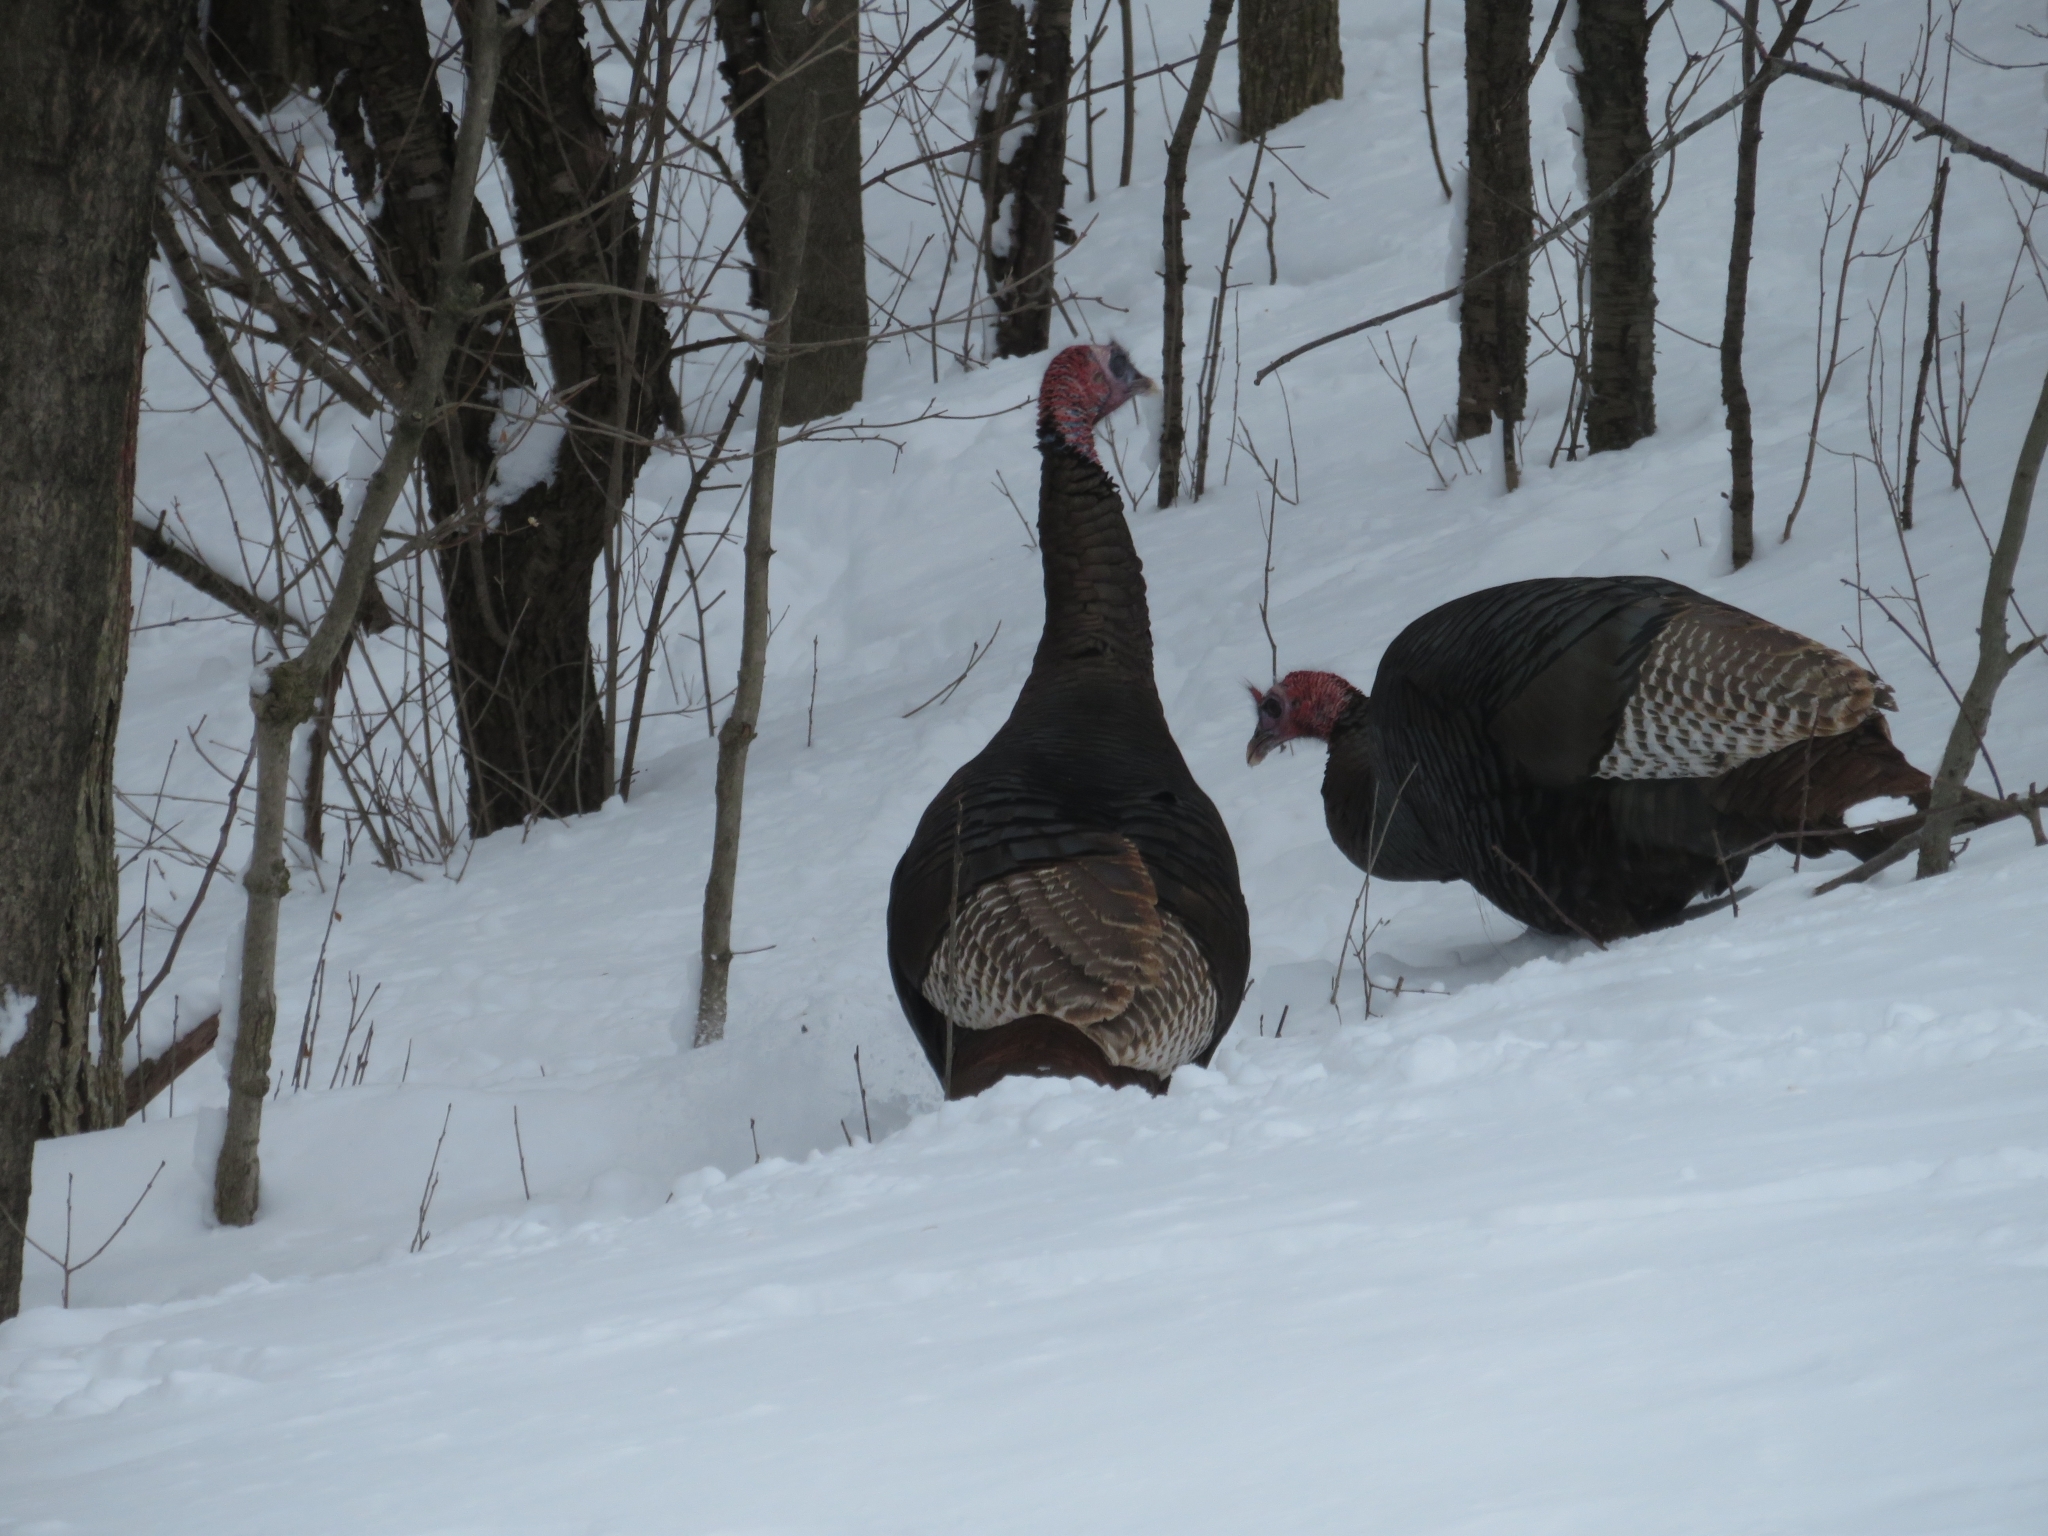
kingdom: Animalia
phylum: Chordata
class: Aves
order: Galliformes
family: Phasianidae
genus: Meleagris
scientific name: Meleagris gallopavo
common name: Wild turkey
